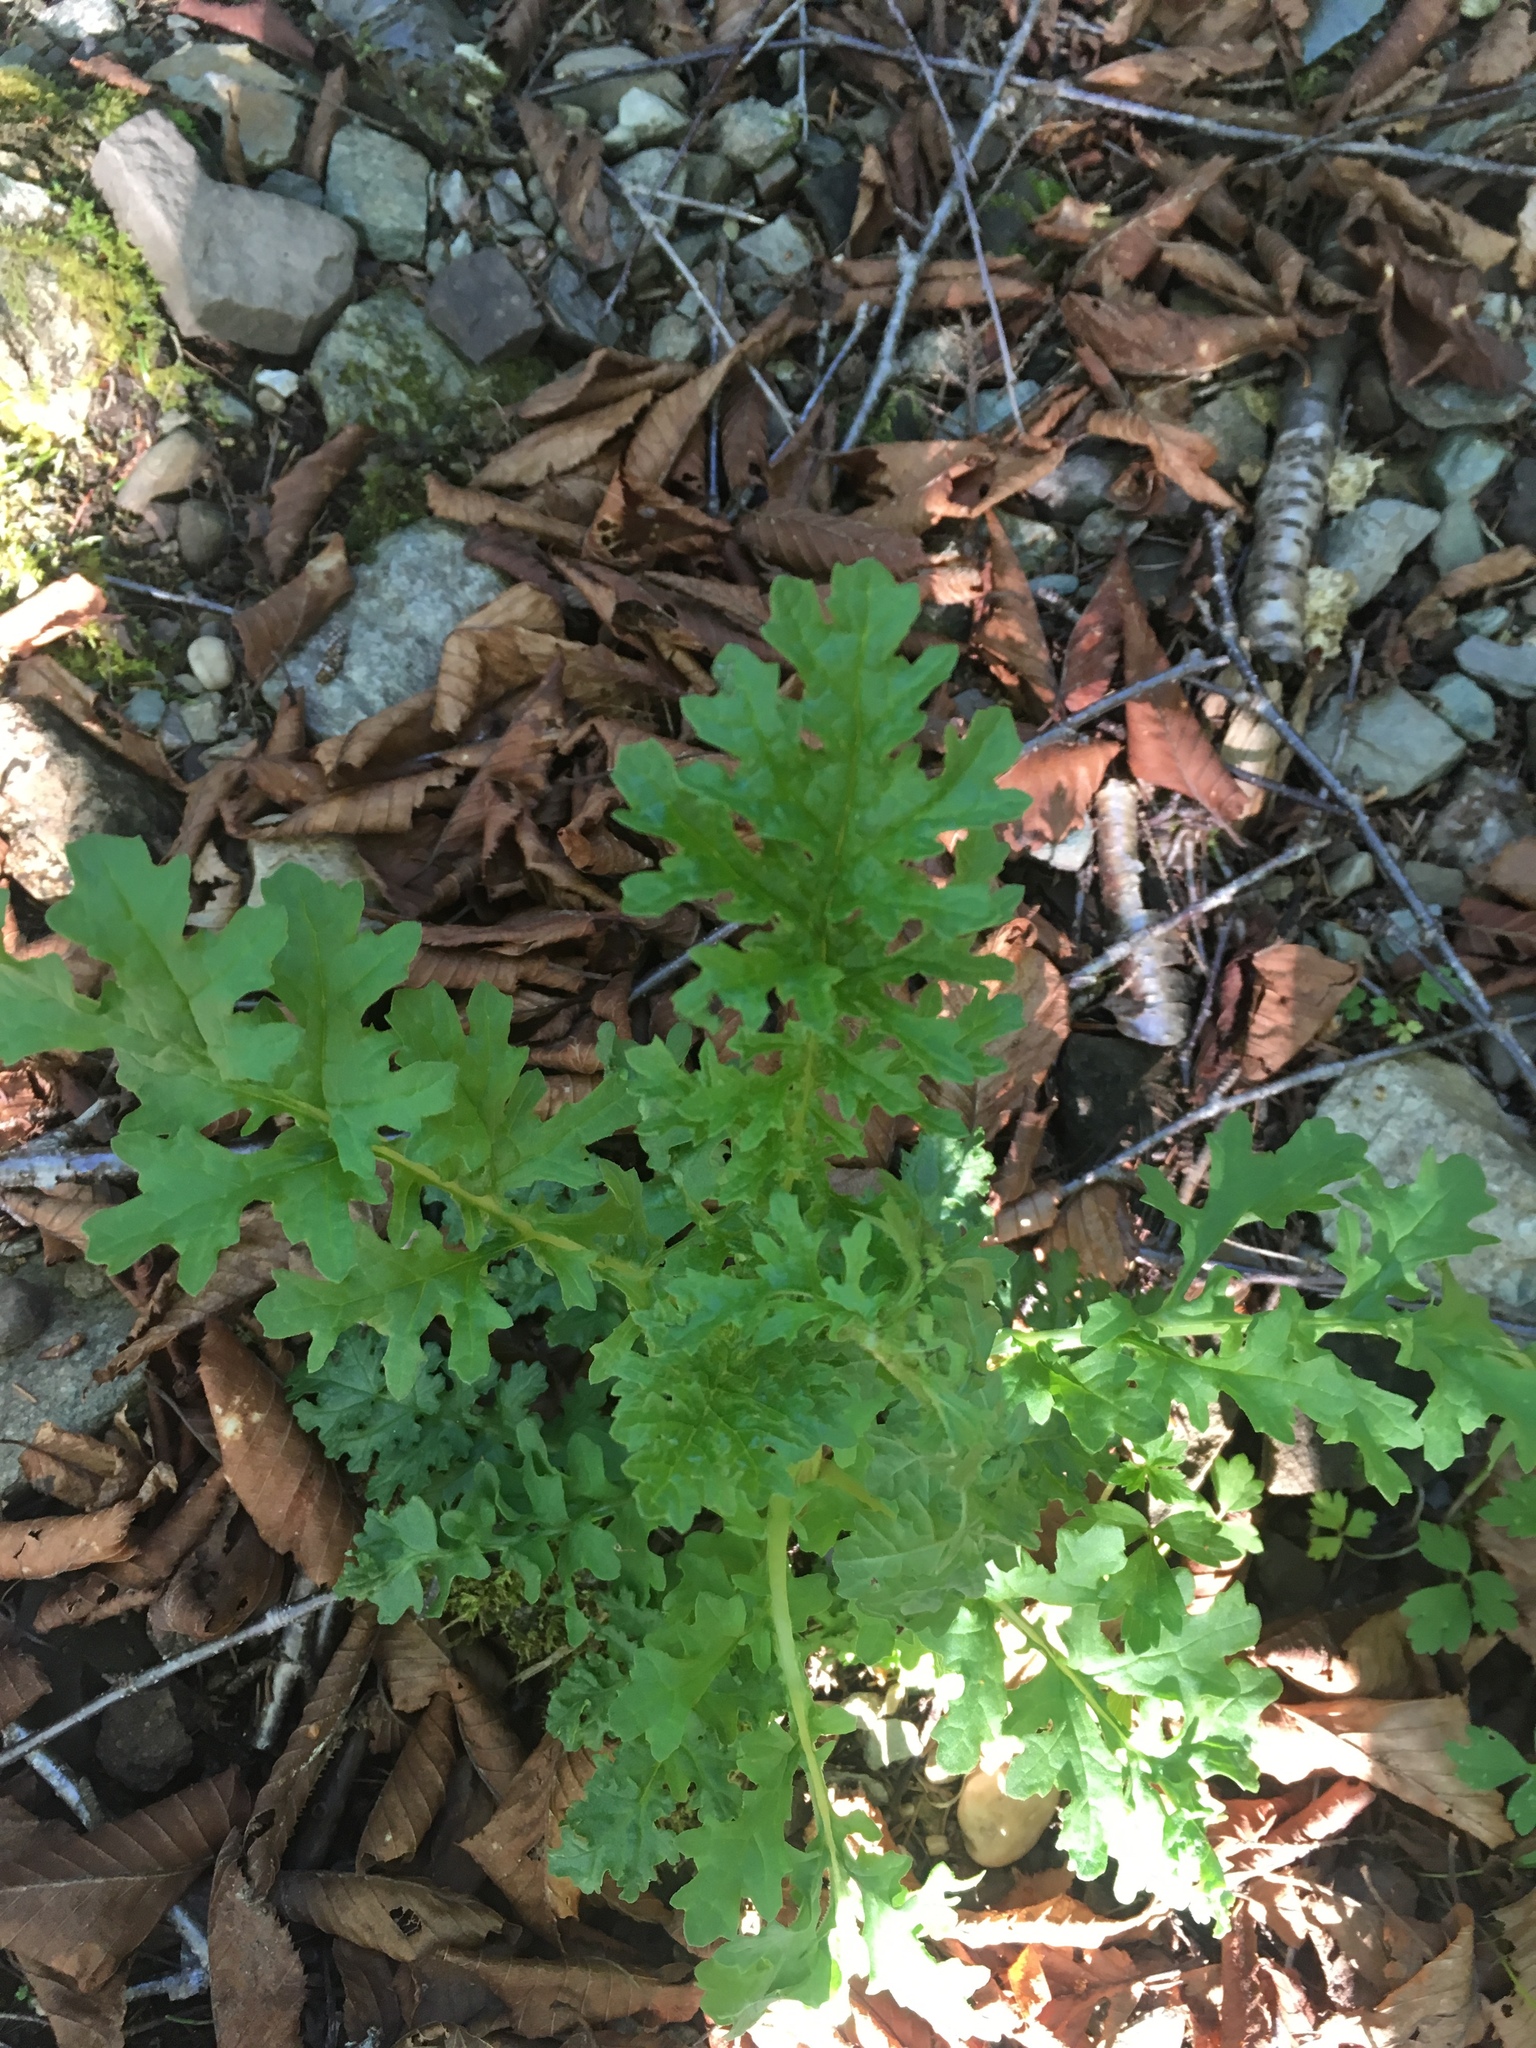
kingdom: Plantae
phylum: Tracheophyta
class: Magnoliopsida
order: Asterales
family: Asteraceae
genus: Jacobaea
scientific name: Jacobaea vulgaris
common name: Stinking willie
